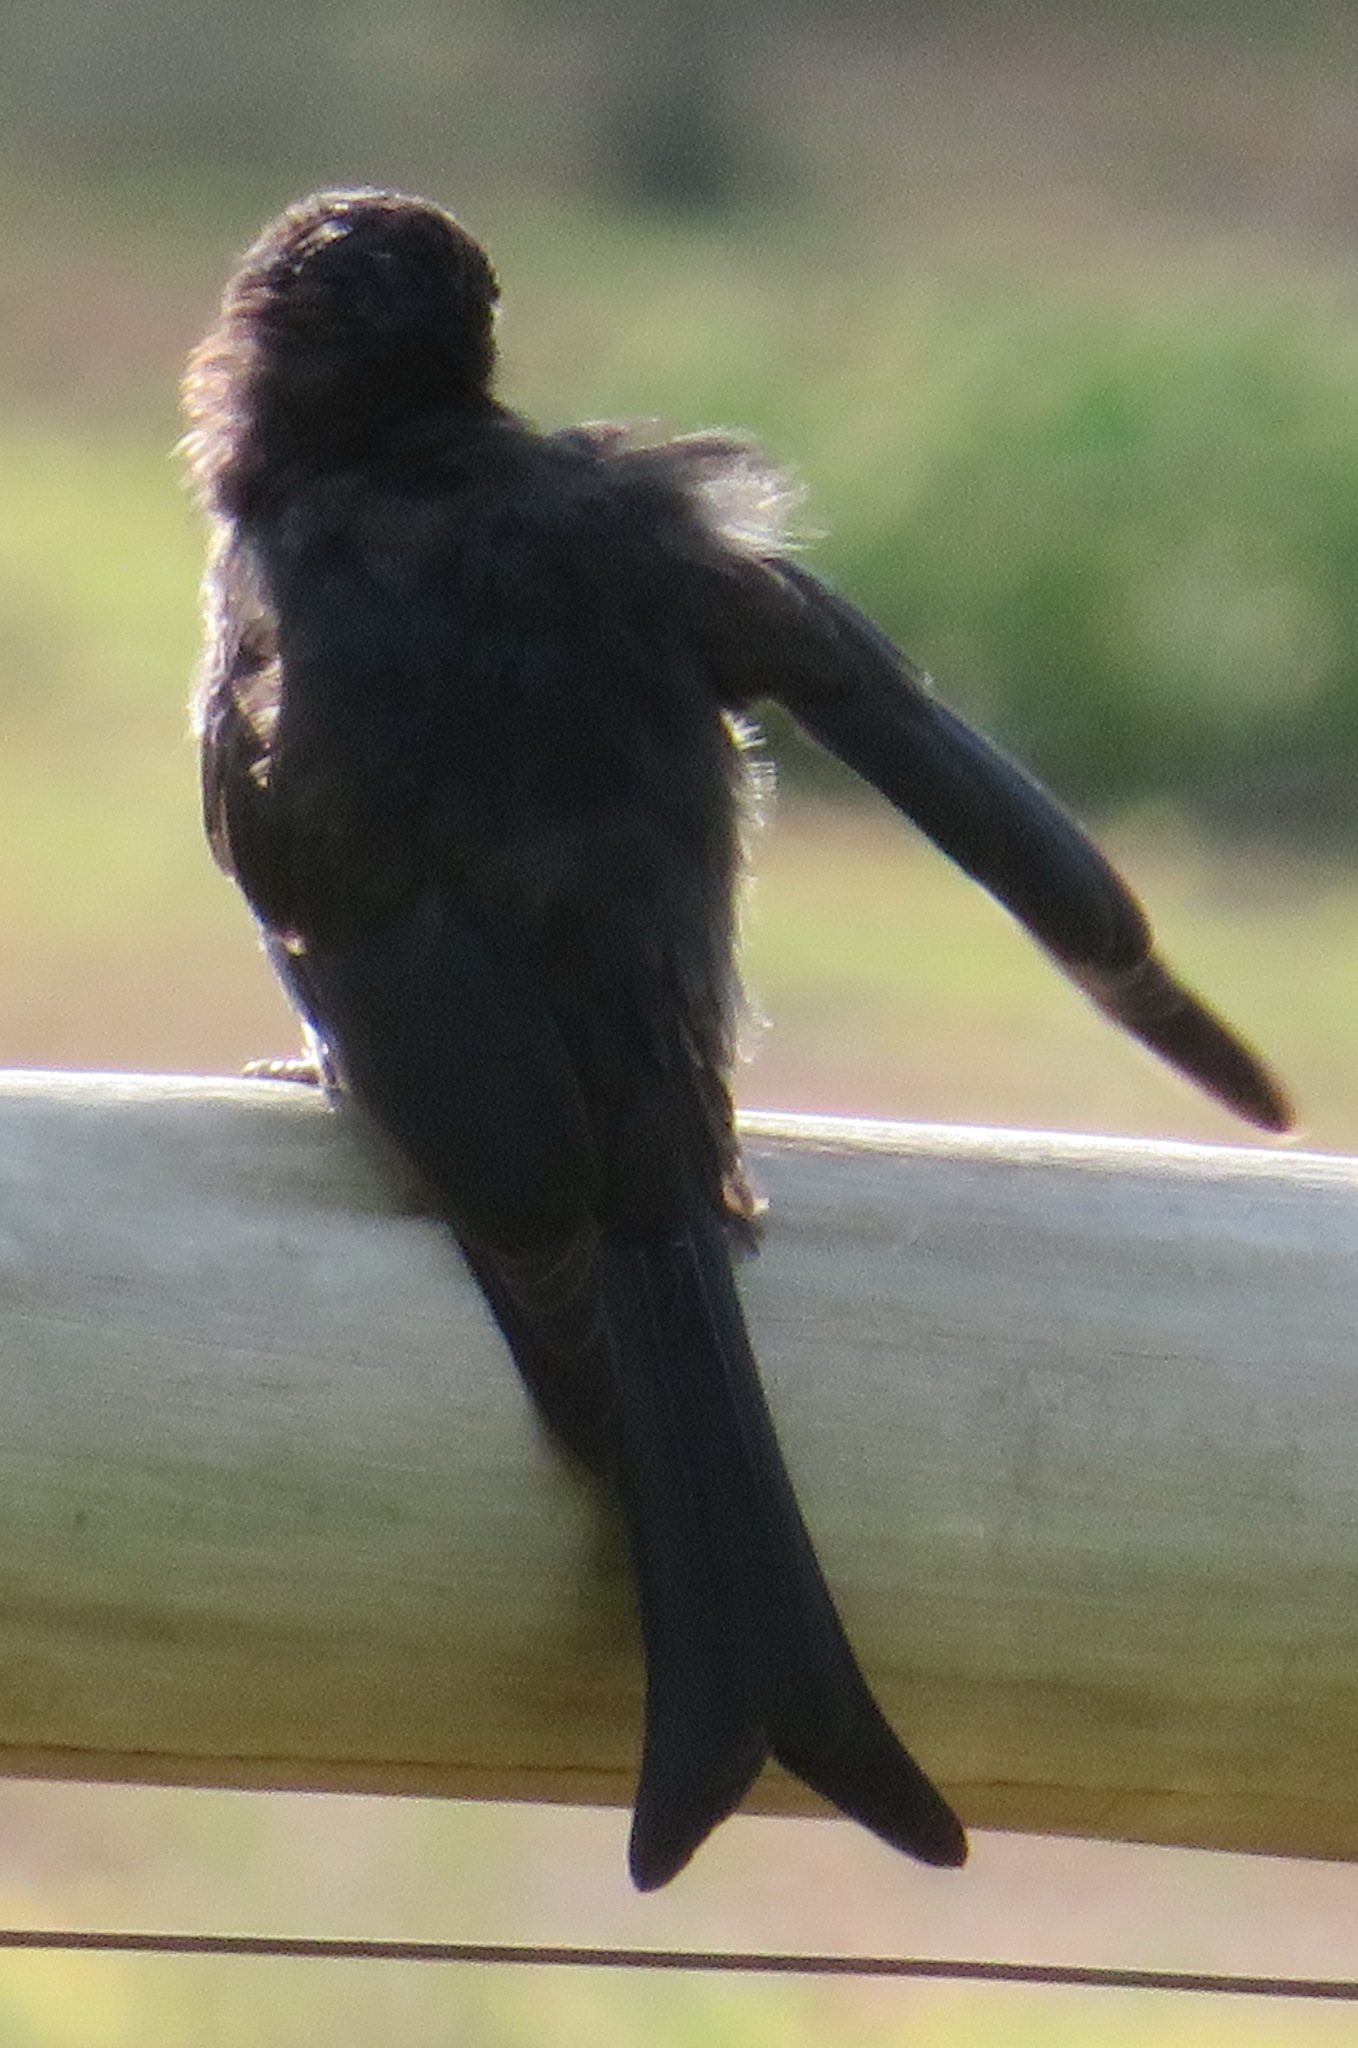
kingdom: Animalia
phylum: Chordata
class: Aves
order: Passeriformes
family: Dicruridae
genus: Dicrurus
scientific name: Dicrurus adsimilis
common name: Fork-tailed drongo
